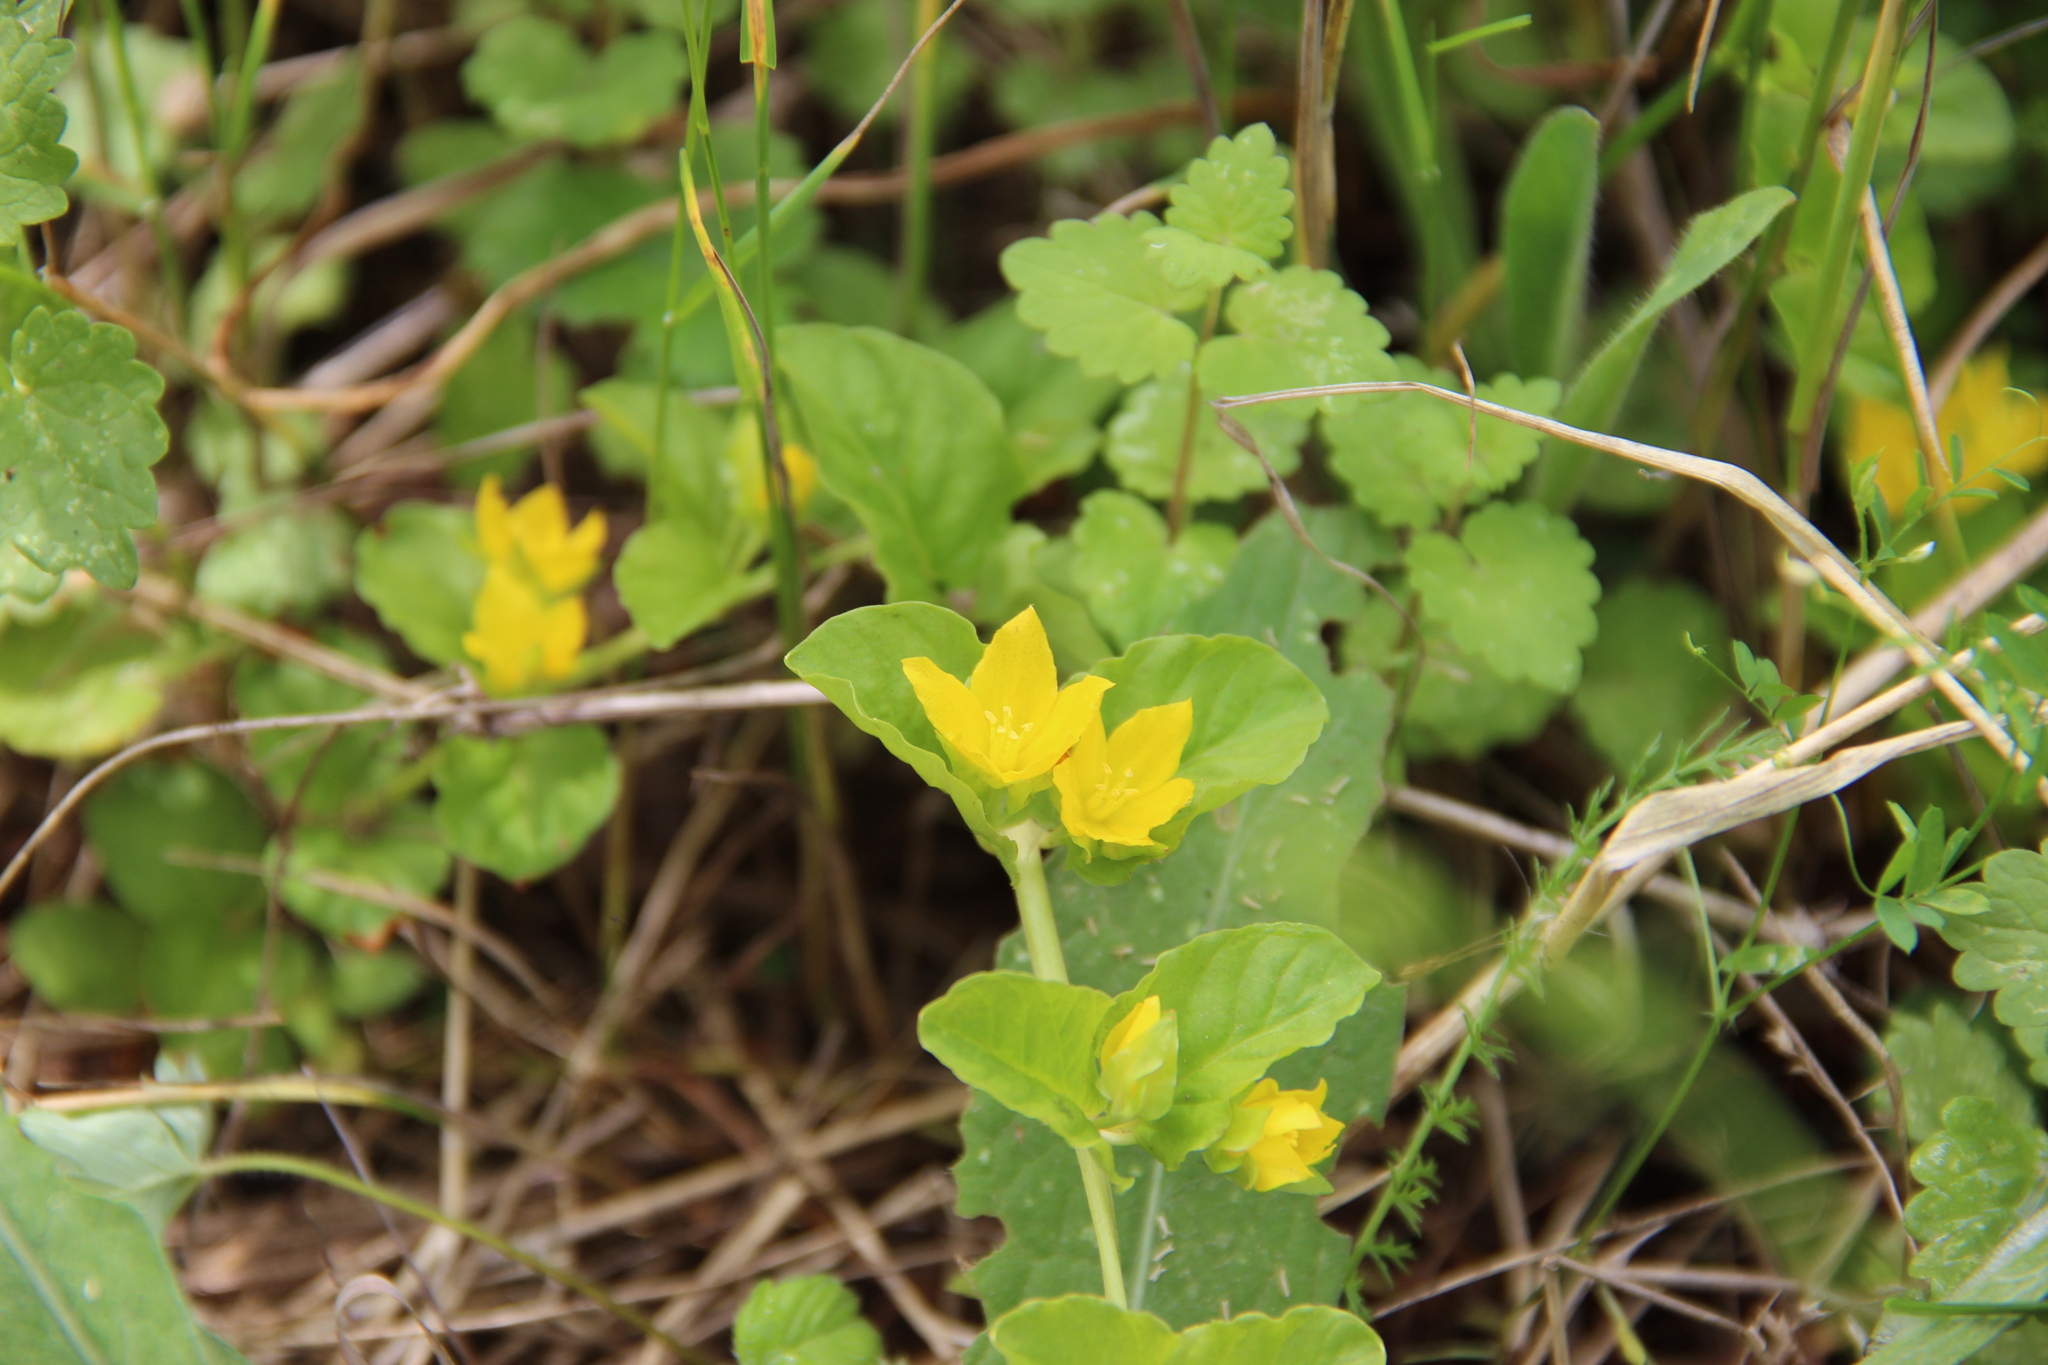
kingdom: Plantae
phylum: Tracheophyta
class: Magnoliopsida
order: Ericales
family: Primulaceae
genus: Lysimachia
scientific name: Lysimachia nummularia
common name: Moneywort
